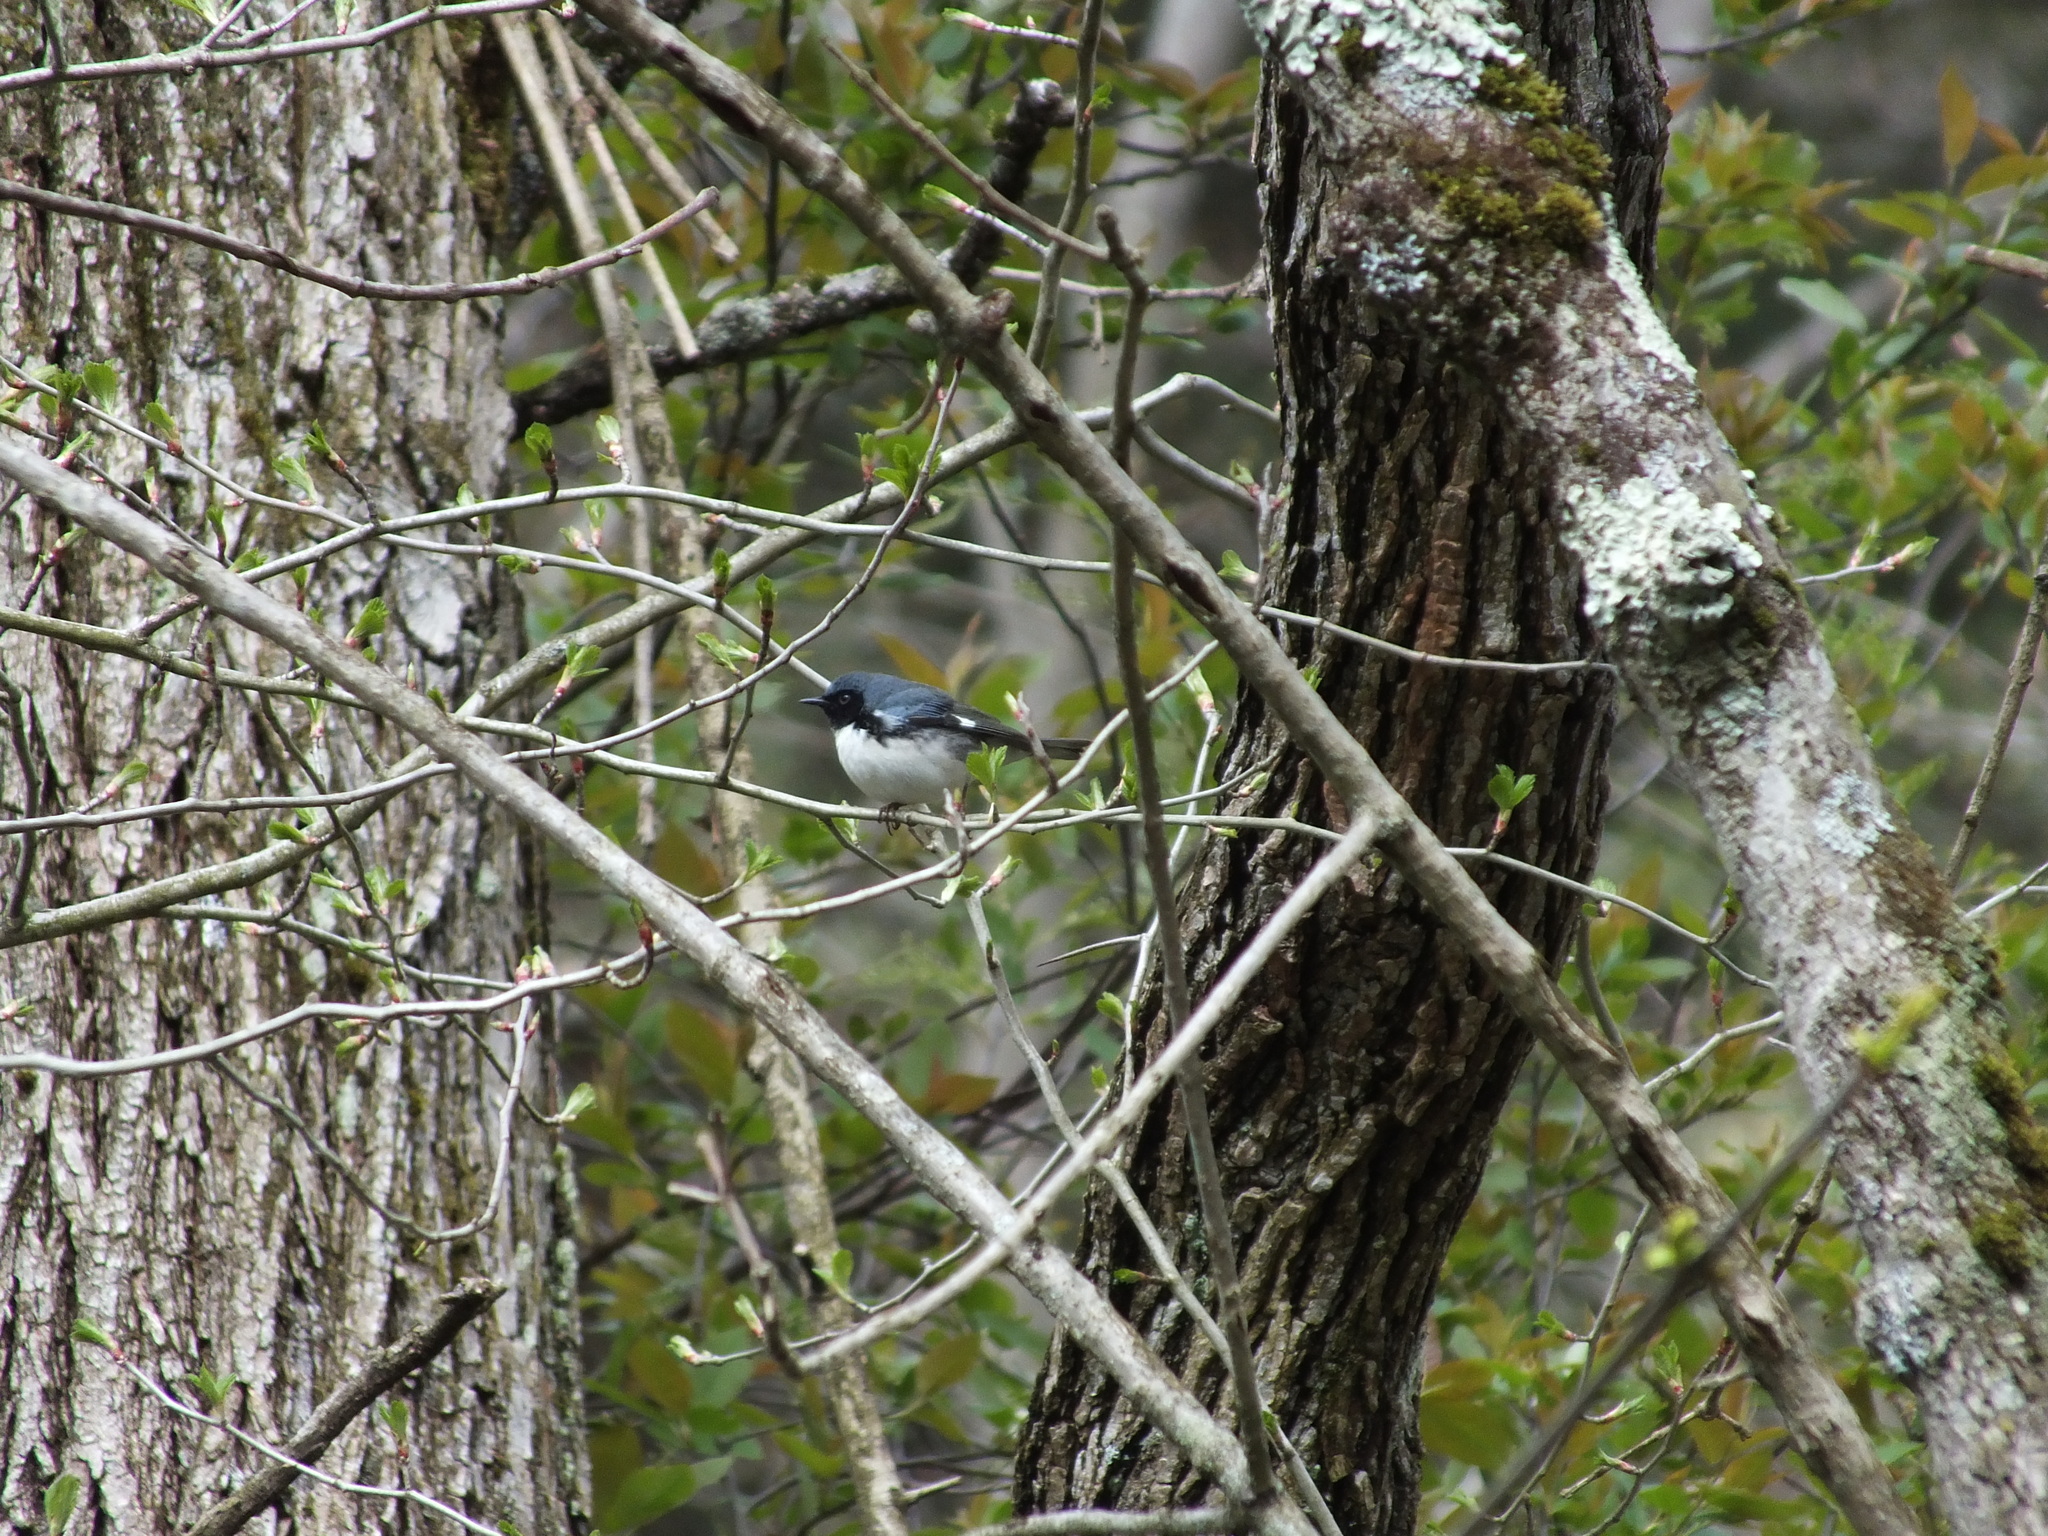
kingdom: Animalia
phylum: Chordata
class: Aves
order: Passeriformes
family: Parulidae
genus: Setophaga
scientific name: Setophaga caerulescens
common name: Black-throated blue warbler
